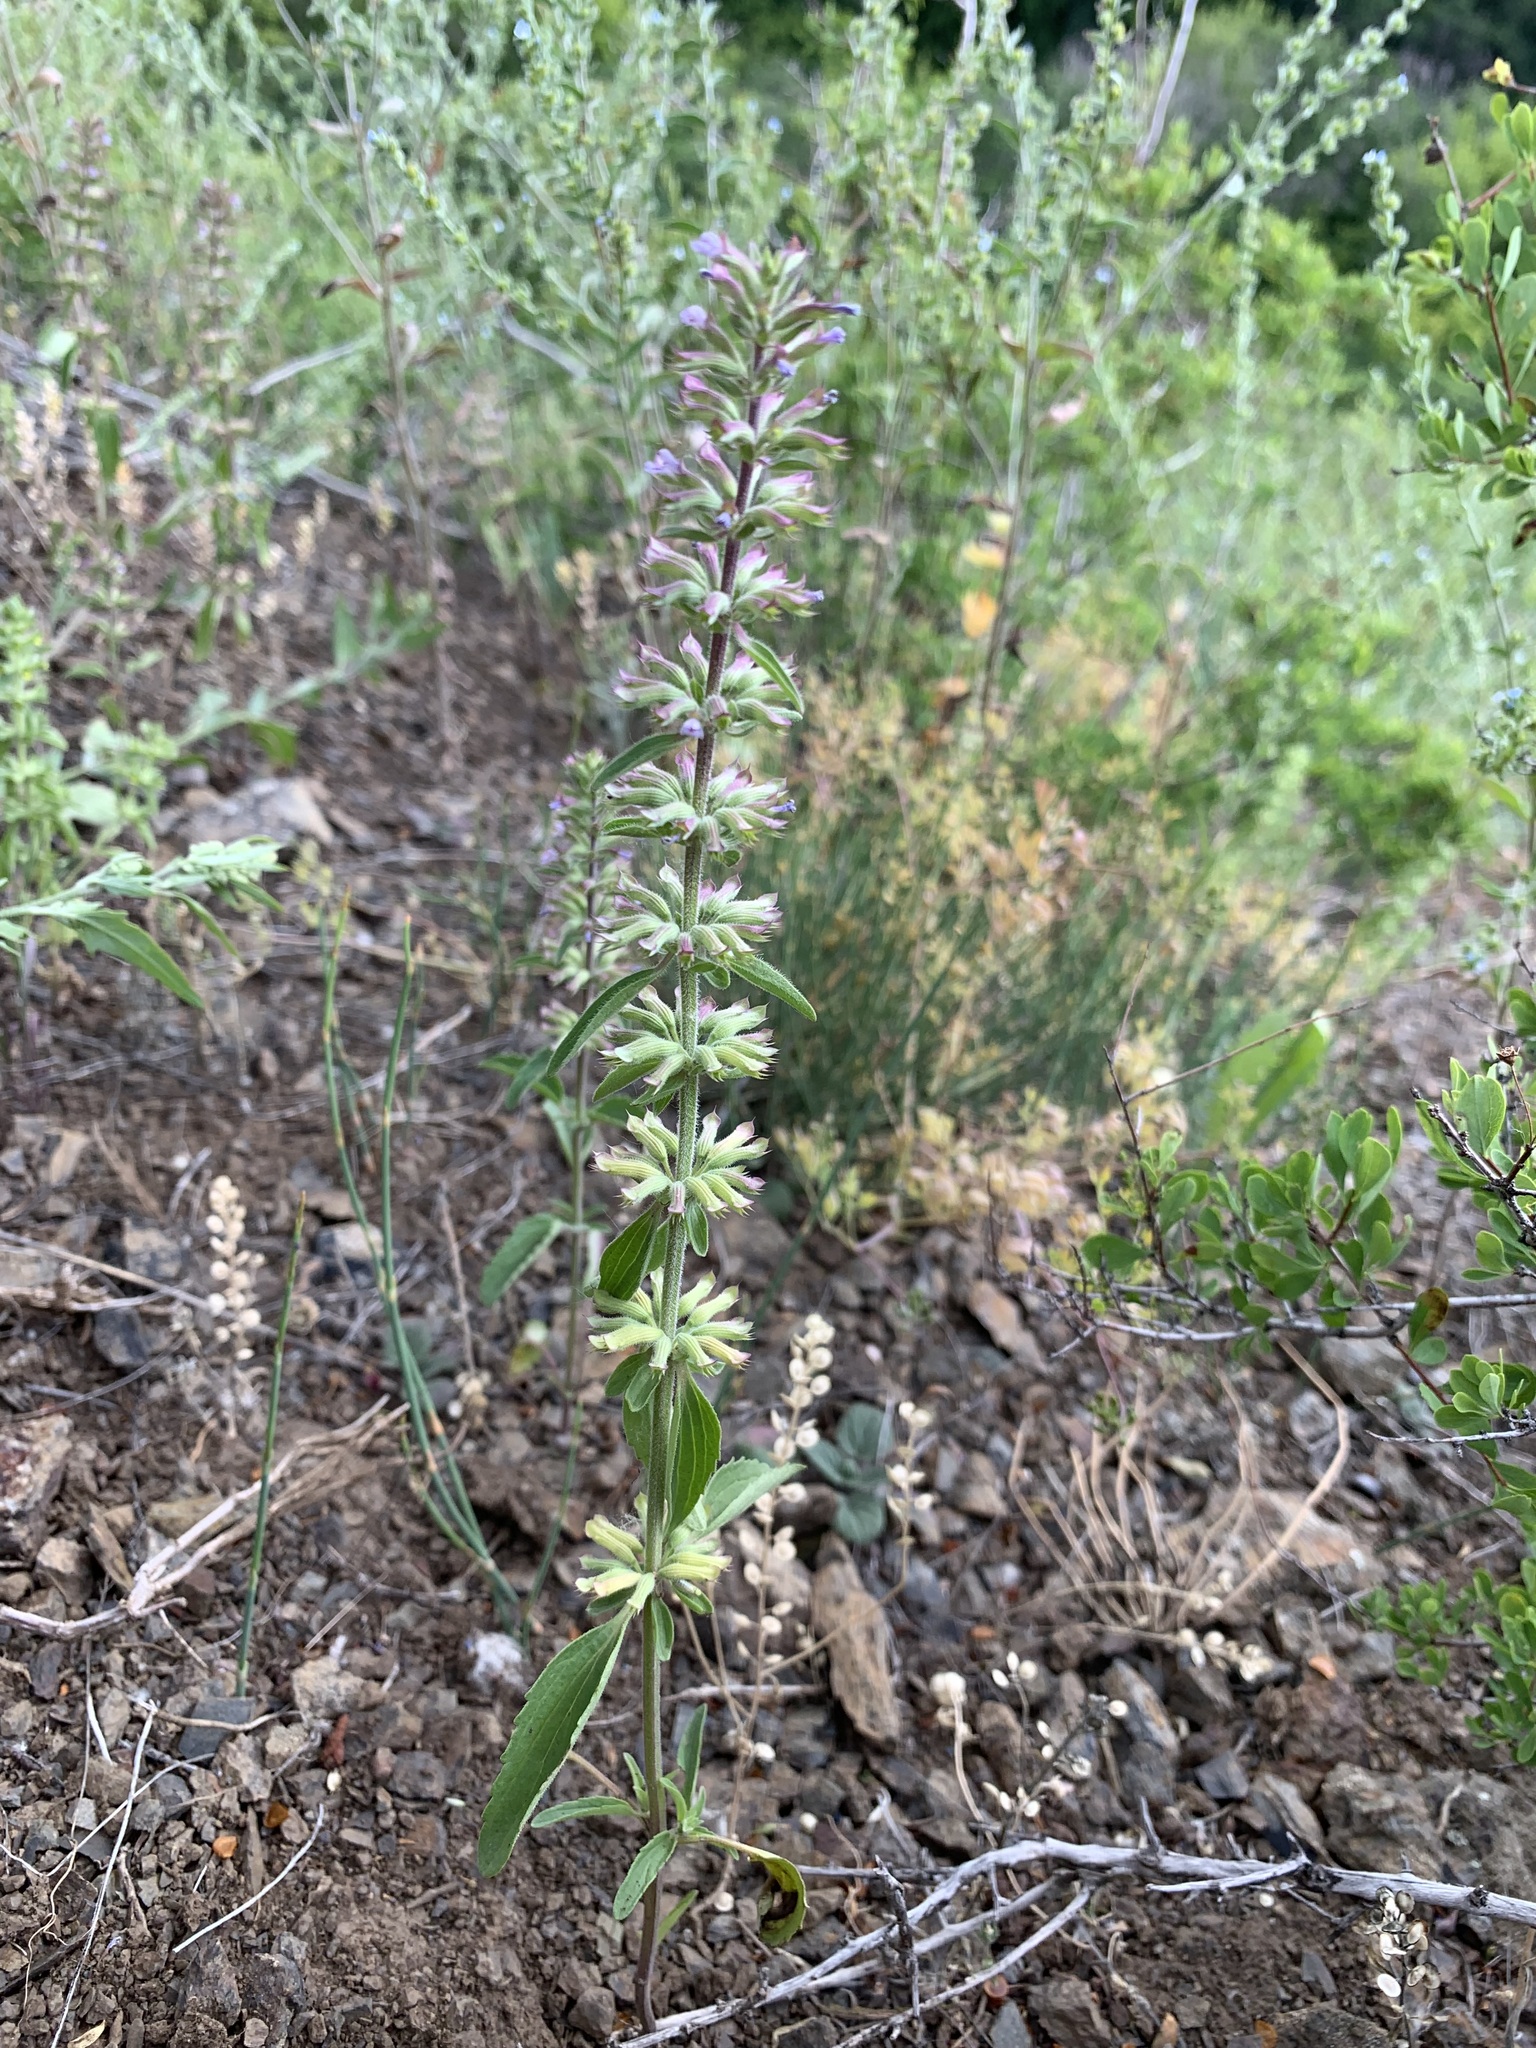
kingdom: Plantae
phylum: Tracheophyta
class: Magnoliopsida
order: Lamiales
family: Lamiaceae
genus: Dracocephalum
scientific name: Dracocephalum thymiflorum
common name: Thymeleaf dragonhead
